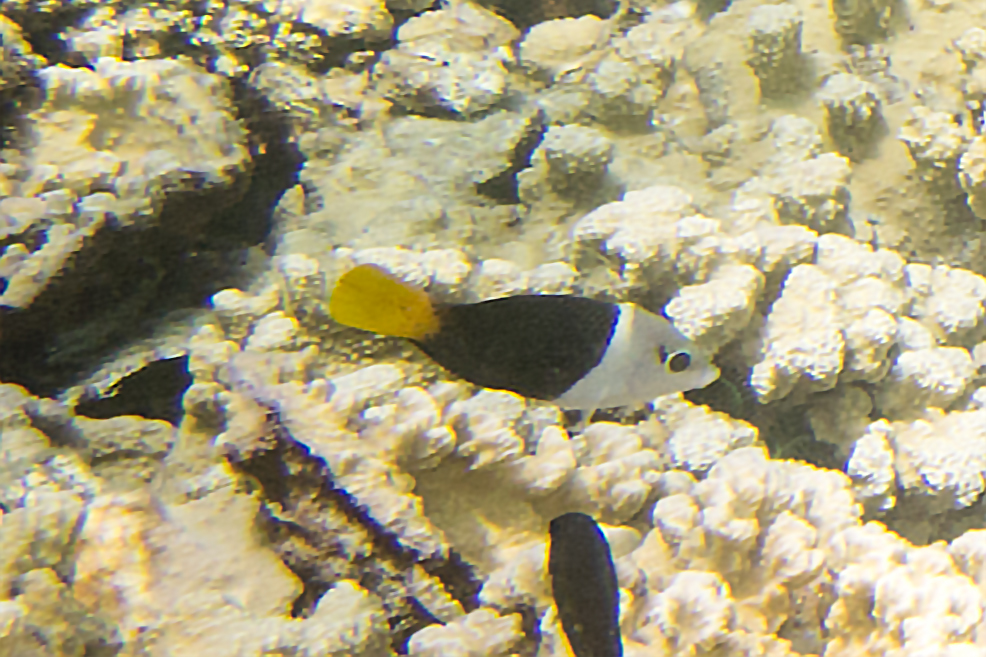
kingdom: Animalia
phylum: Chordata
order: Perciformes
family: Labridae
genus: Hemigymnus
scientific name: Hemigymnus melapterus
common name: Blackeye thicklip
